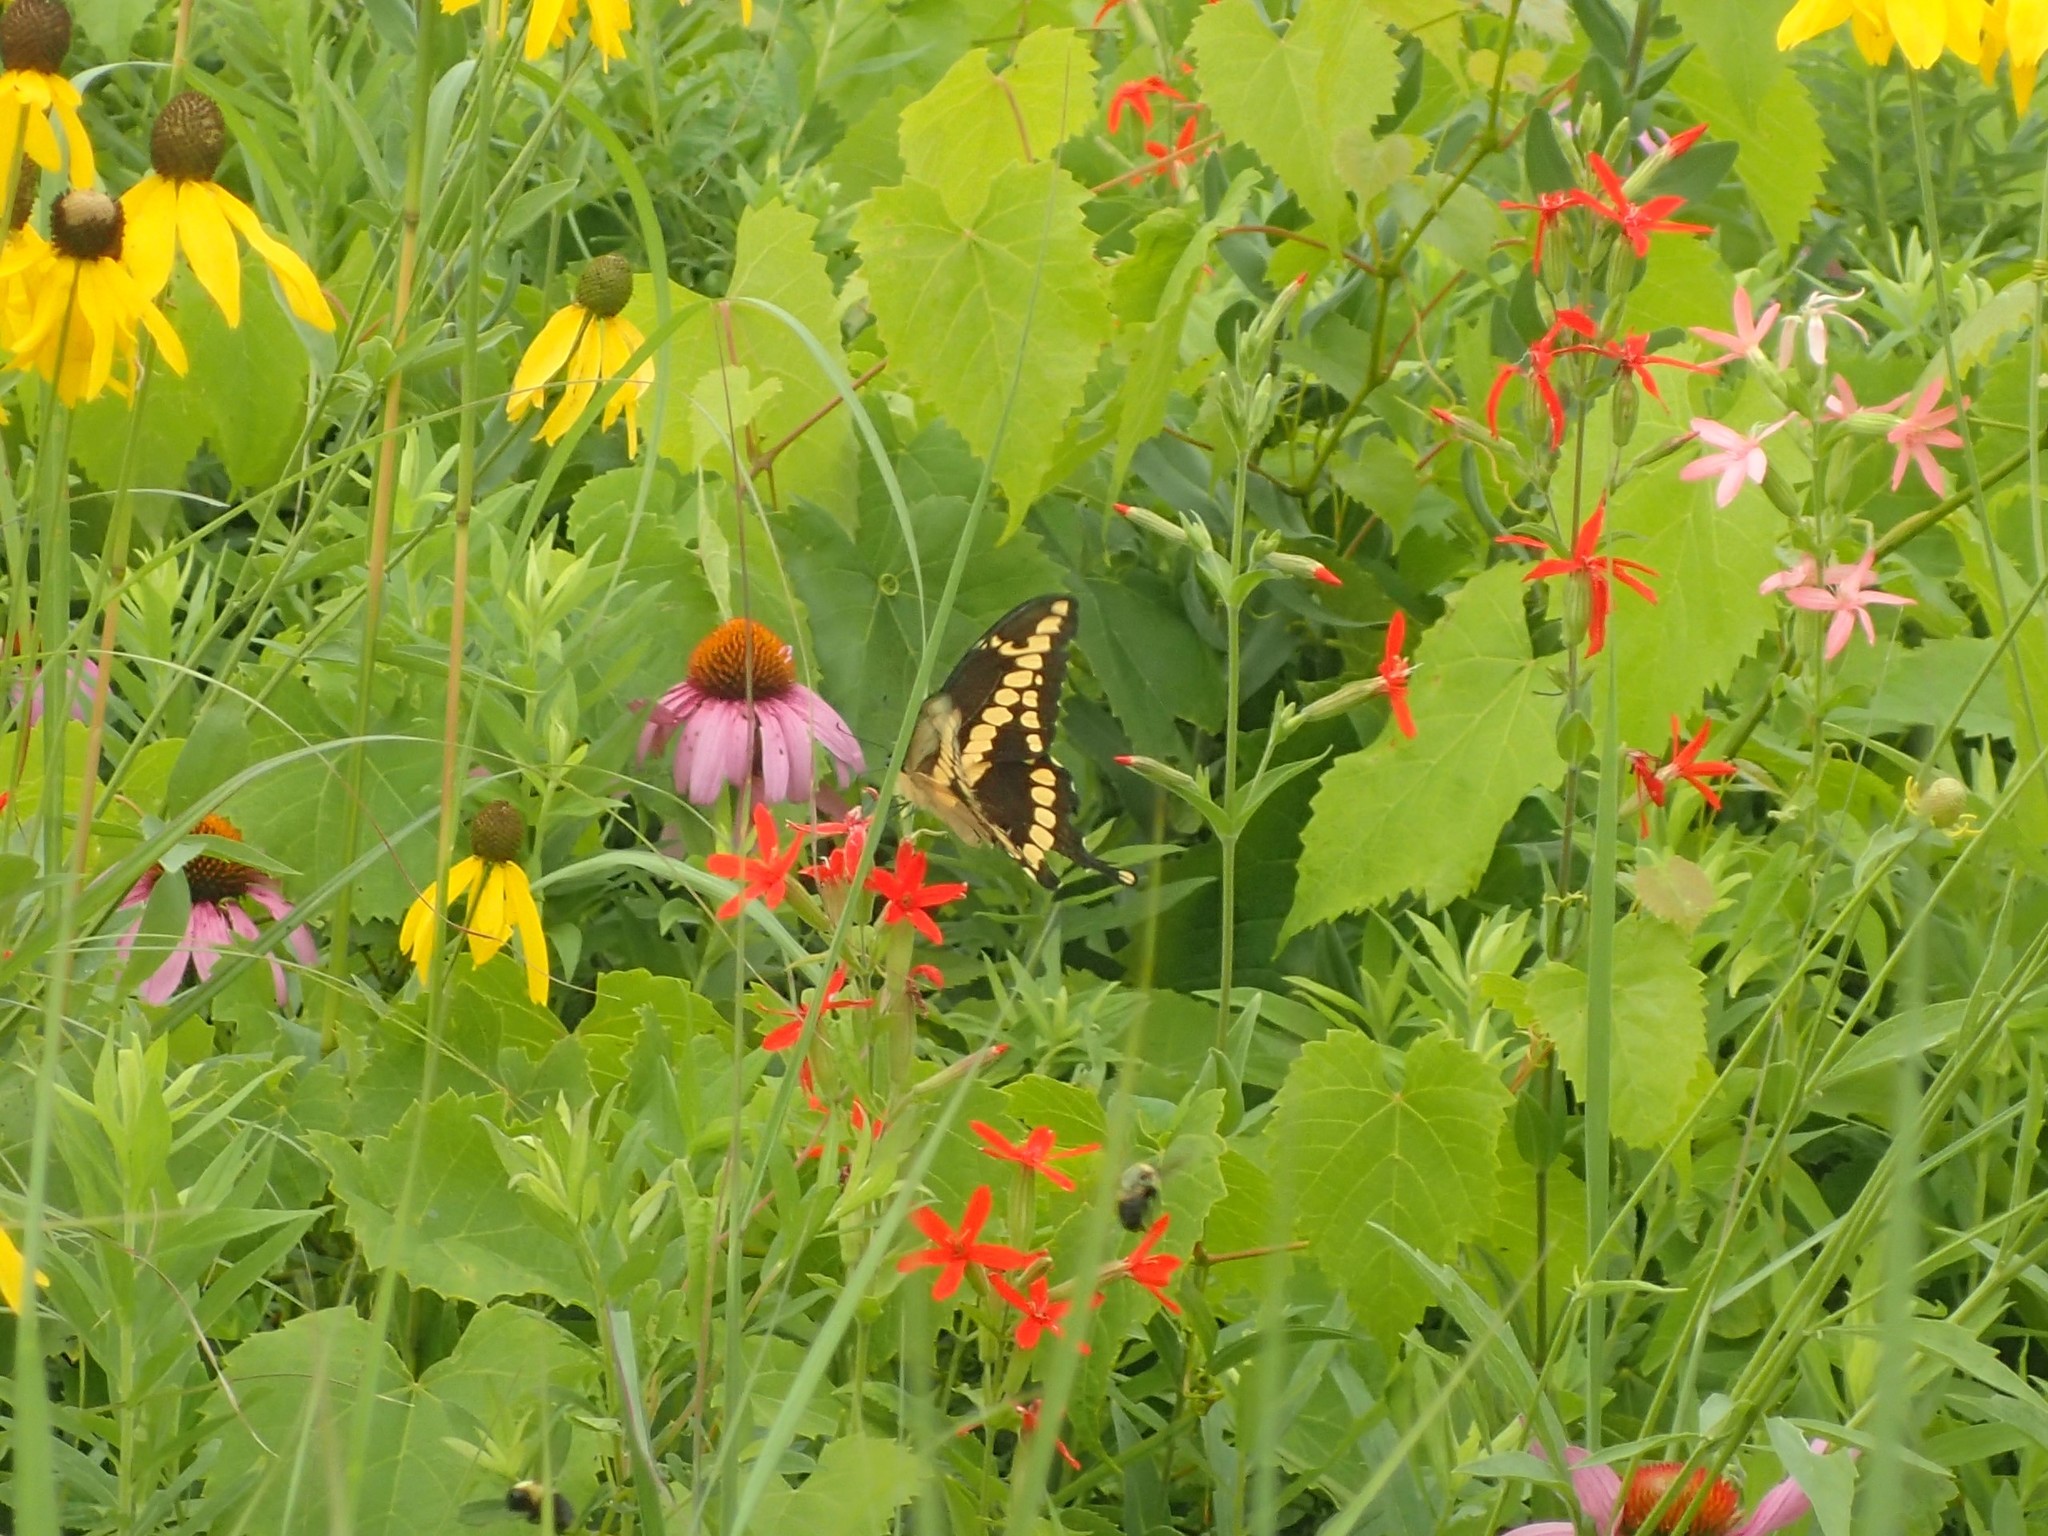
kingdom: Animalia
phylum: Arthropoda
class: Insecta
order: Lepidoptera
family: Papilionidae
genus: Papilio
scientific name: Papilio cresphontes
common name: Giant swallowtail
